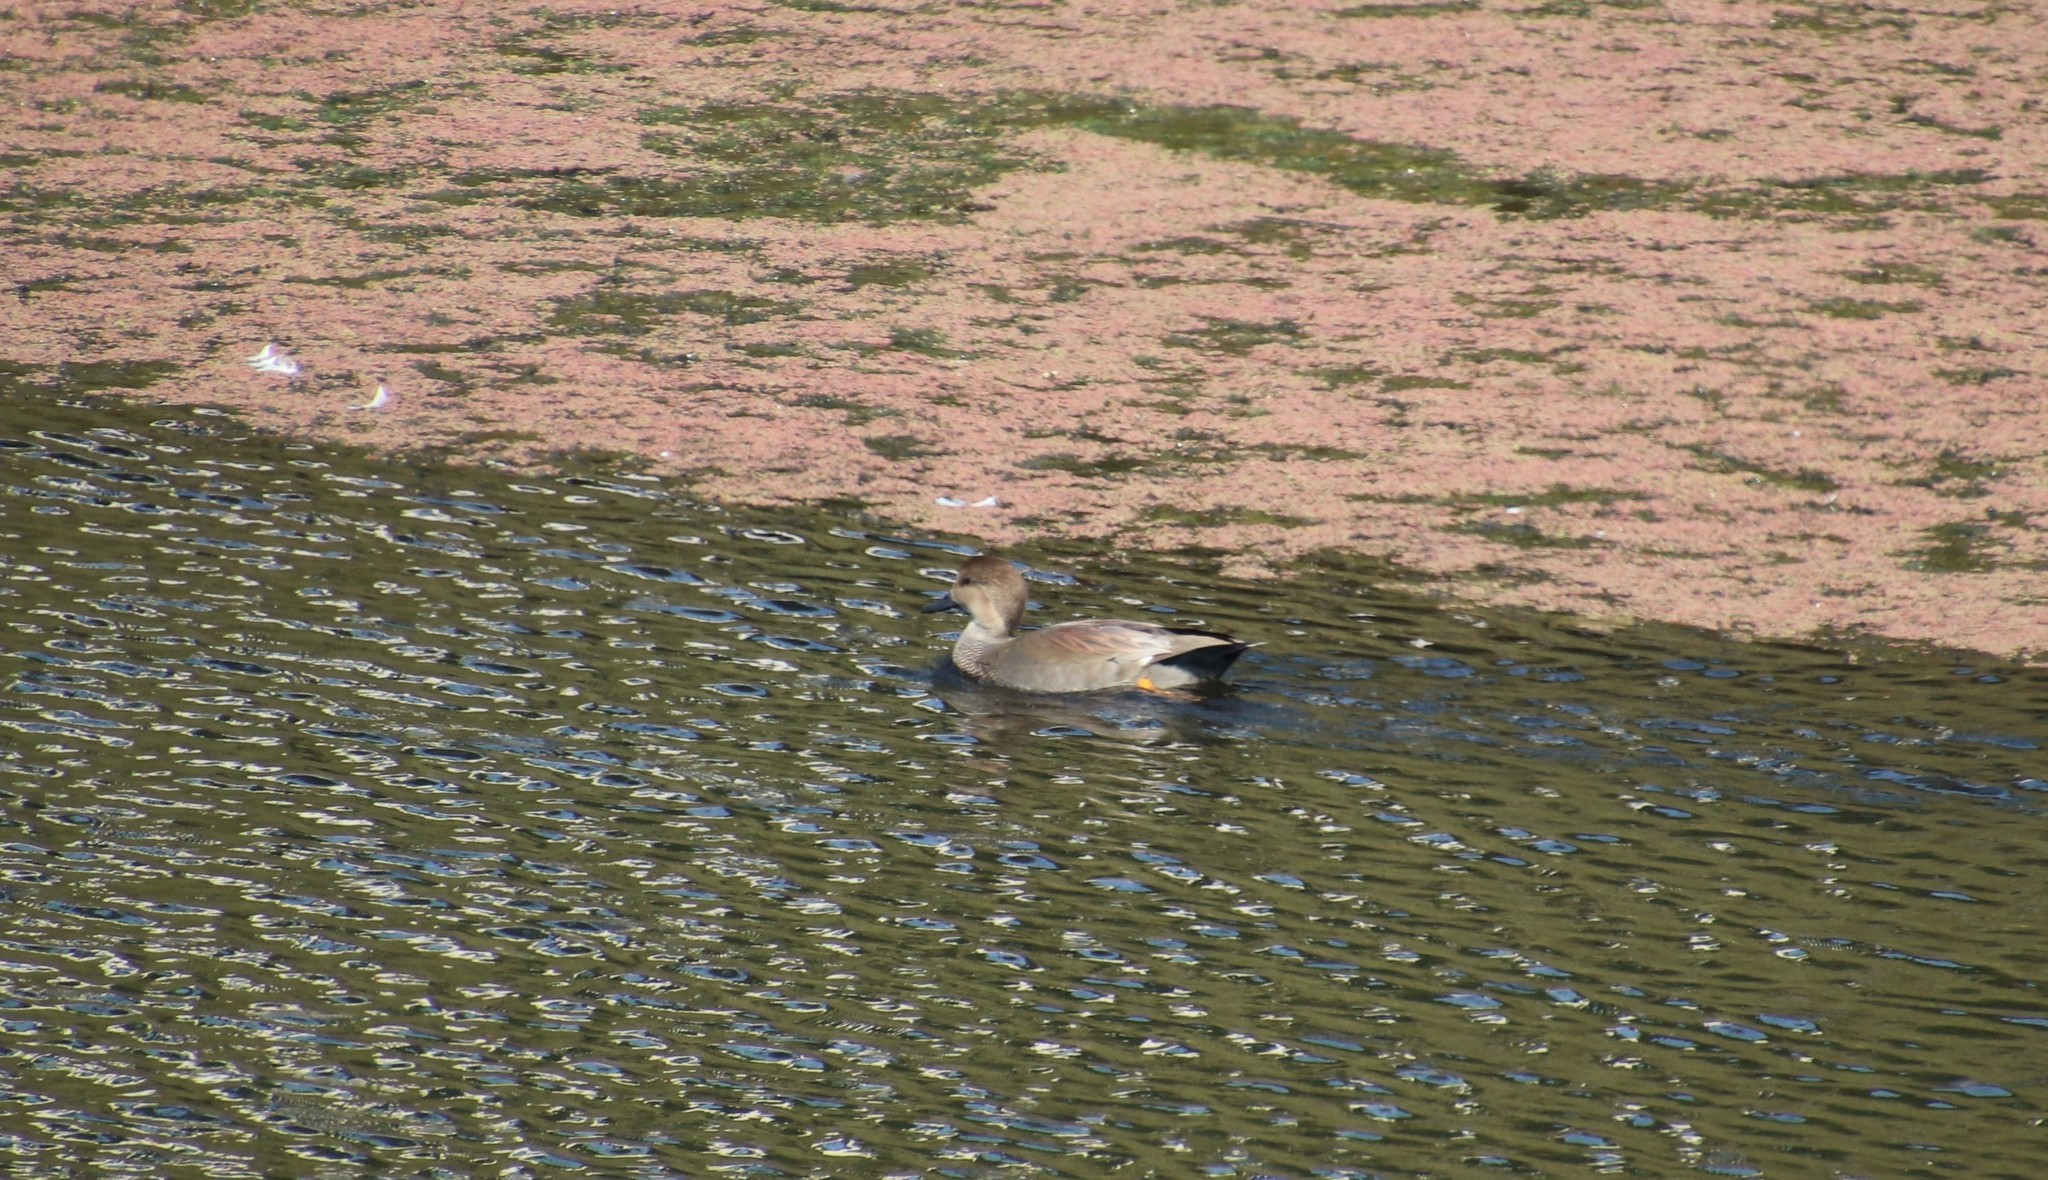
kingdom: Animalia
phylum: Chordata
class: Aves
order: Anseriformes
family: Anatidae
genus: Mareca
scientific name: Mareca strepera
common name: Gadwall
